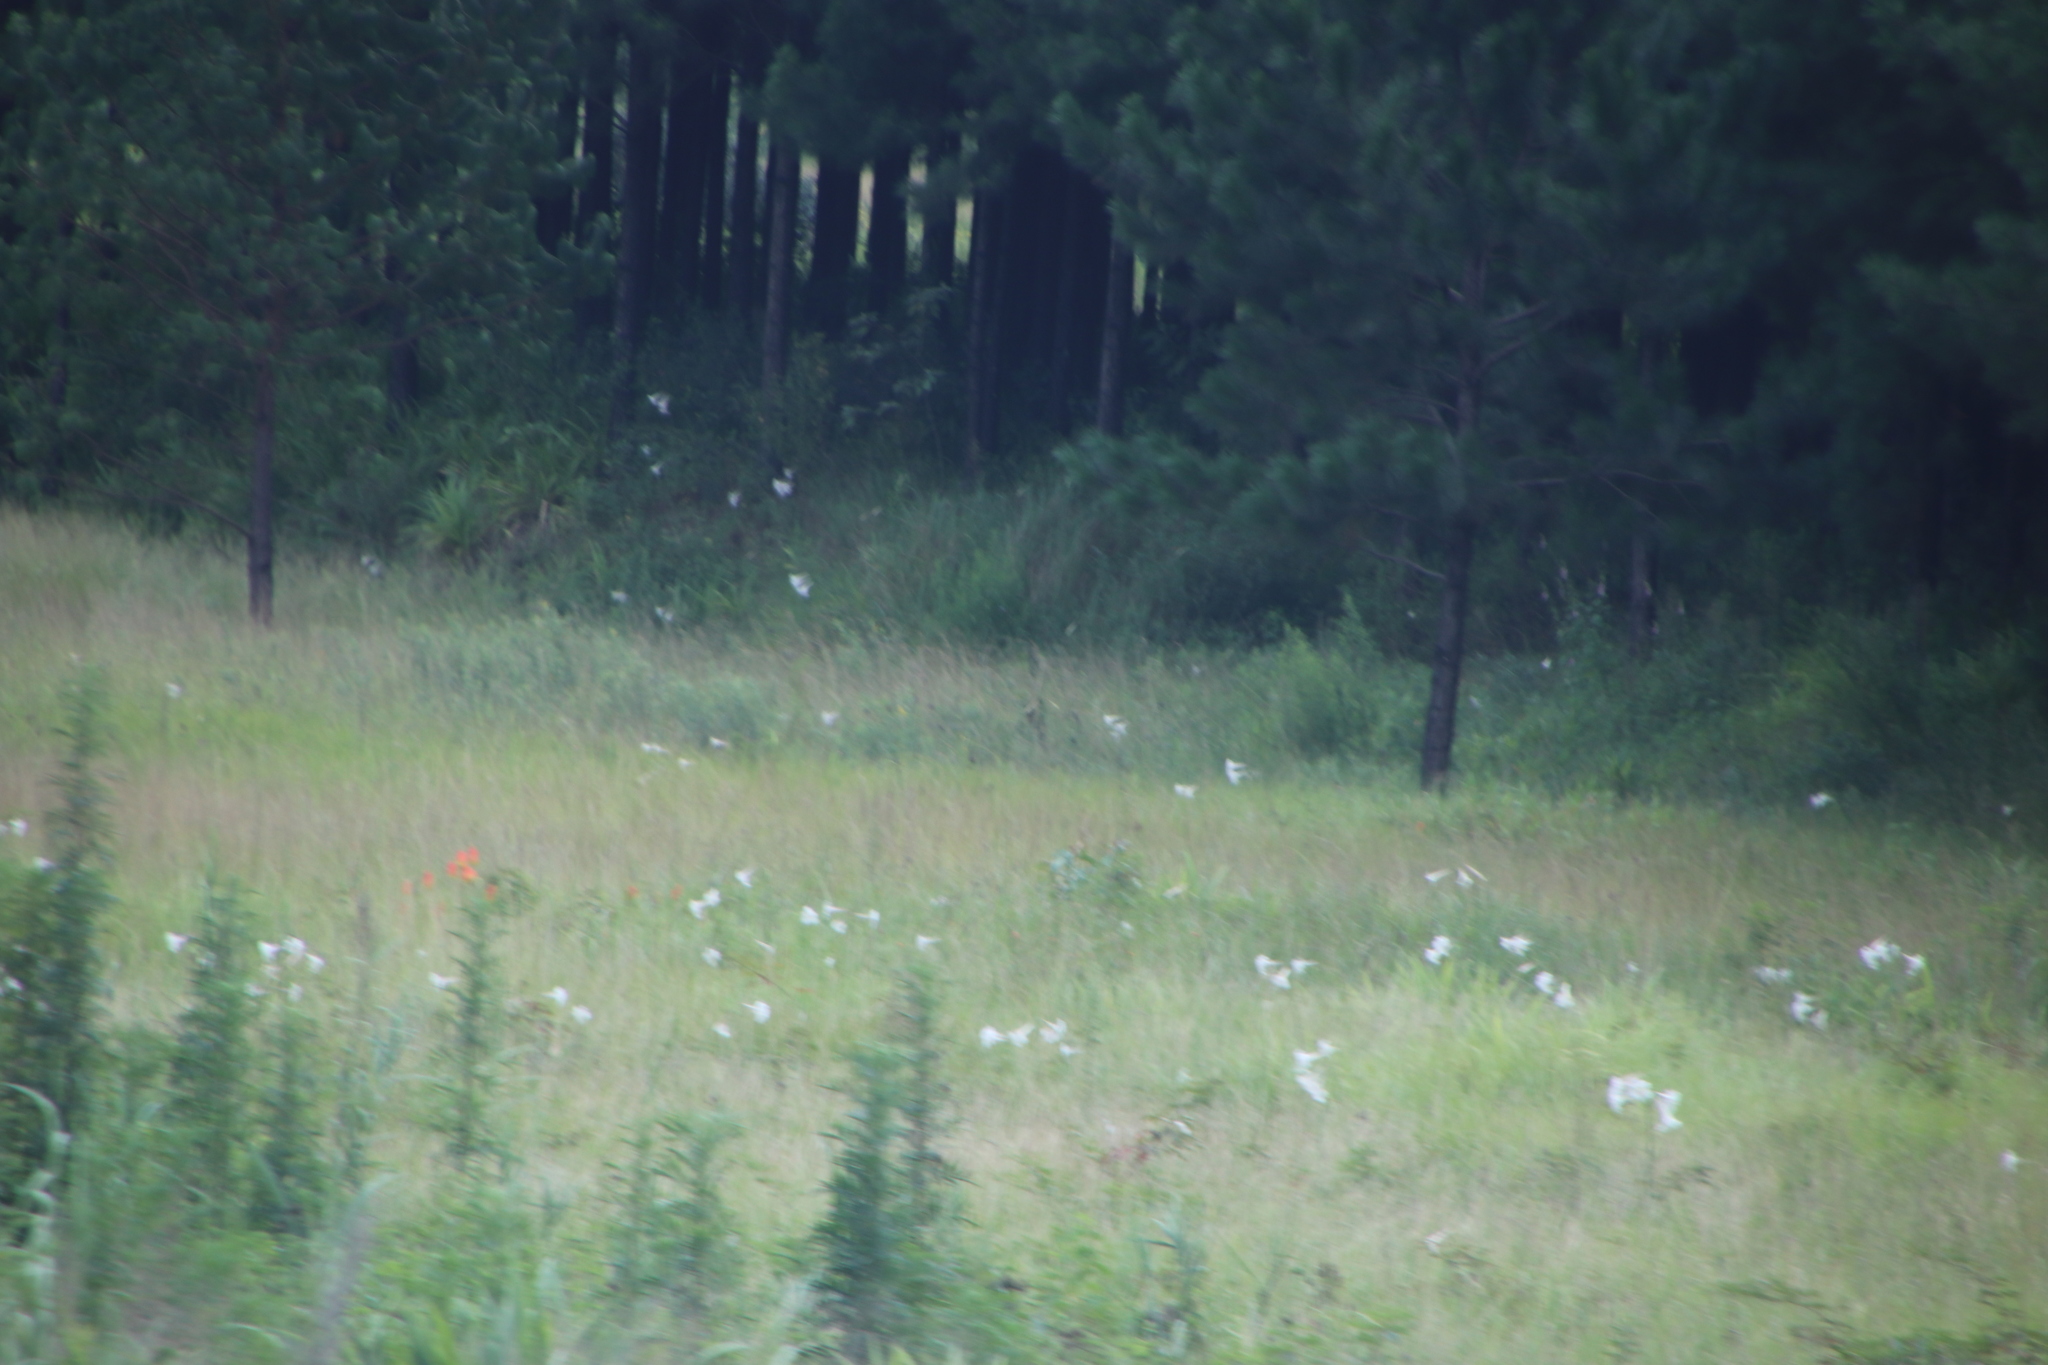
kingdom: Plantae
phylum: Tracheophyta
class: Liliopsida
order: Liliales
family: Liliaceae
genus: Lilium
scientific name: Lilium formosanum
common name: Formosa lily
